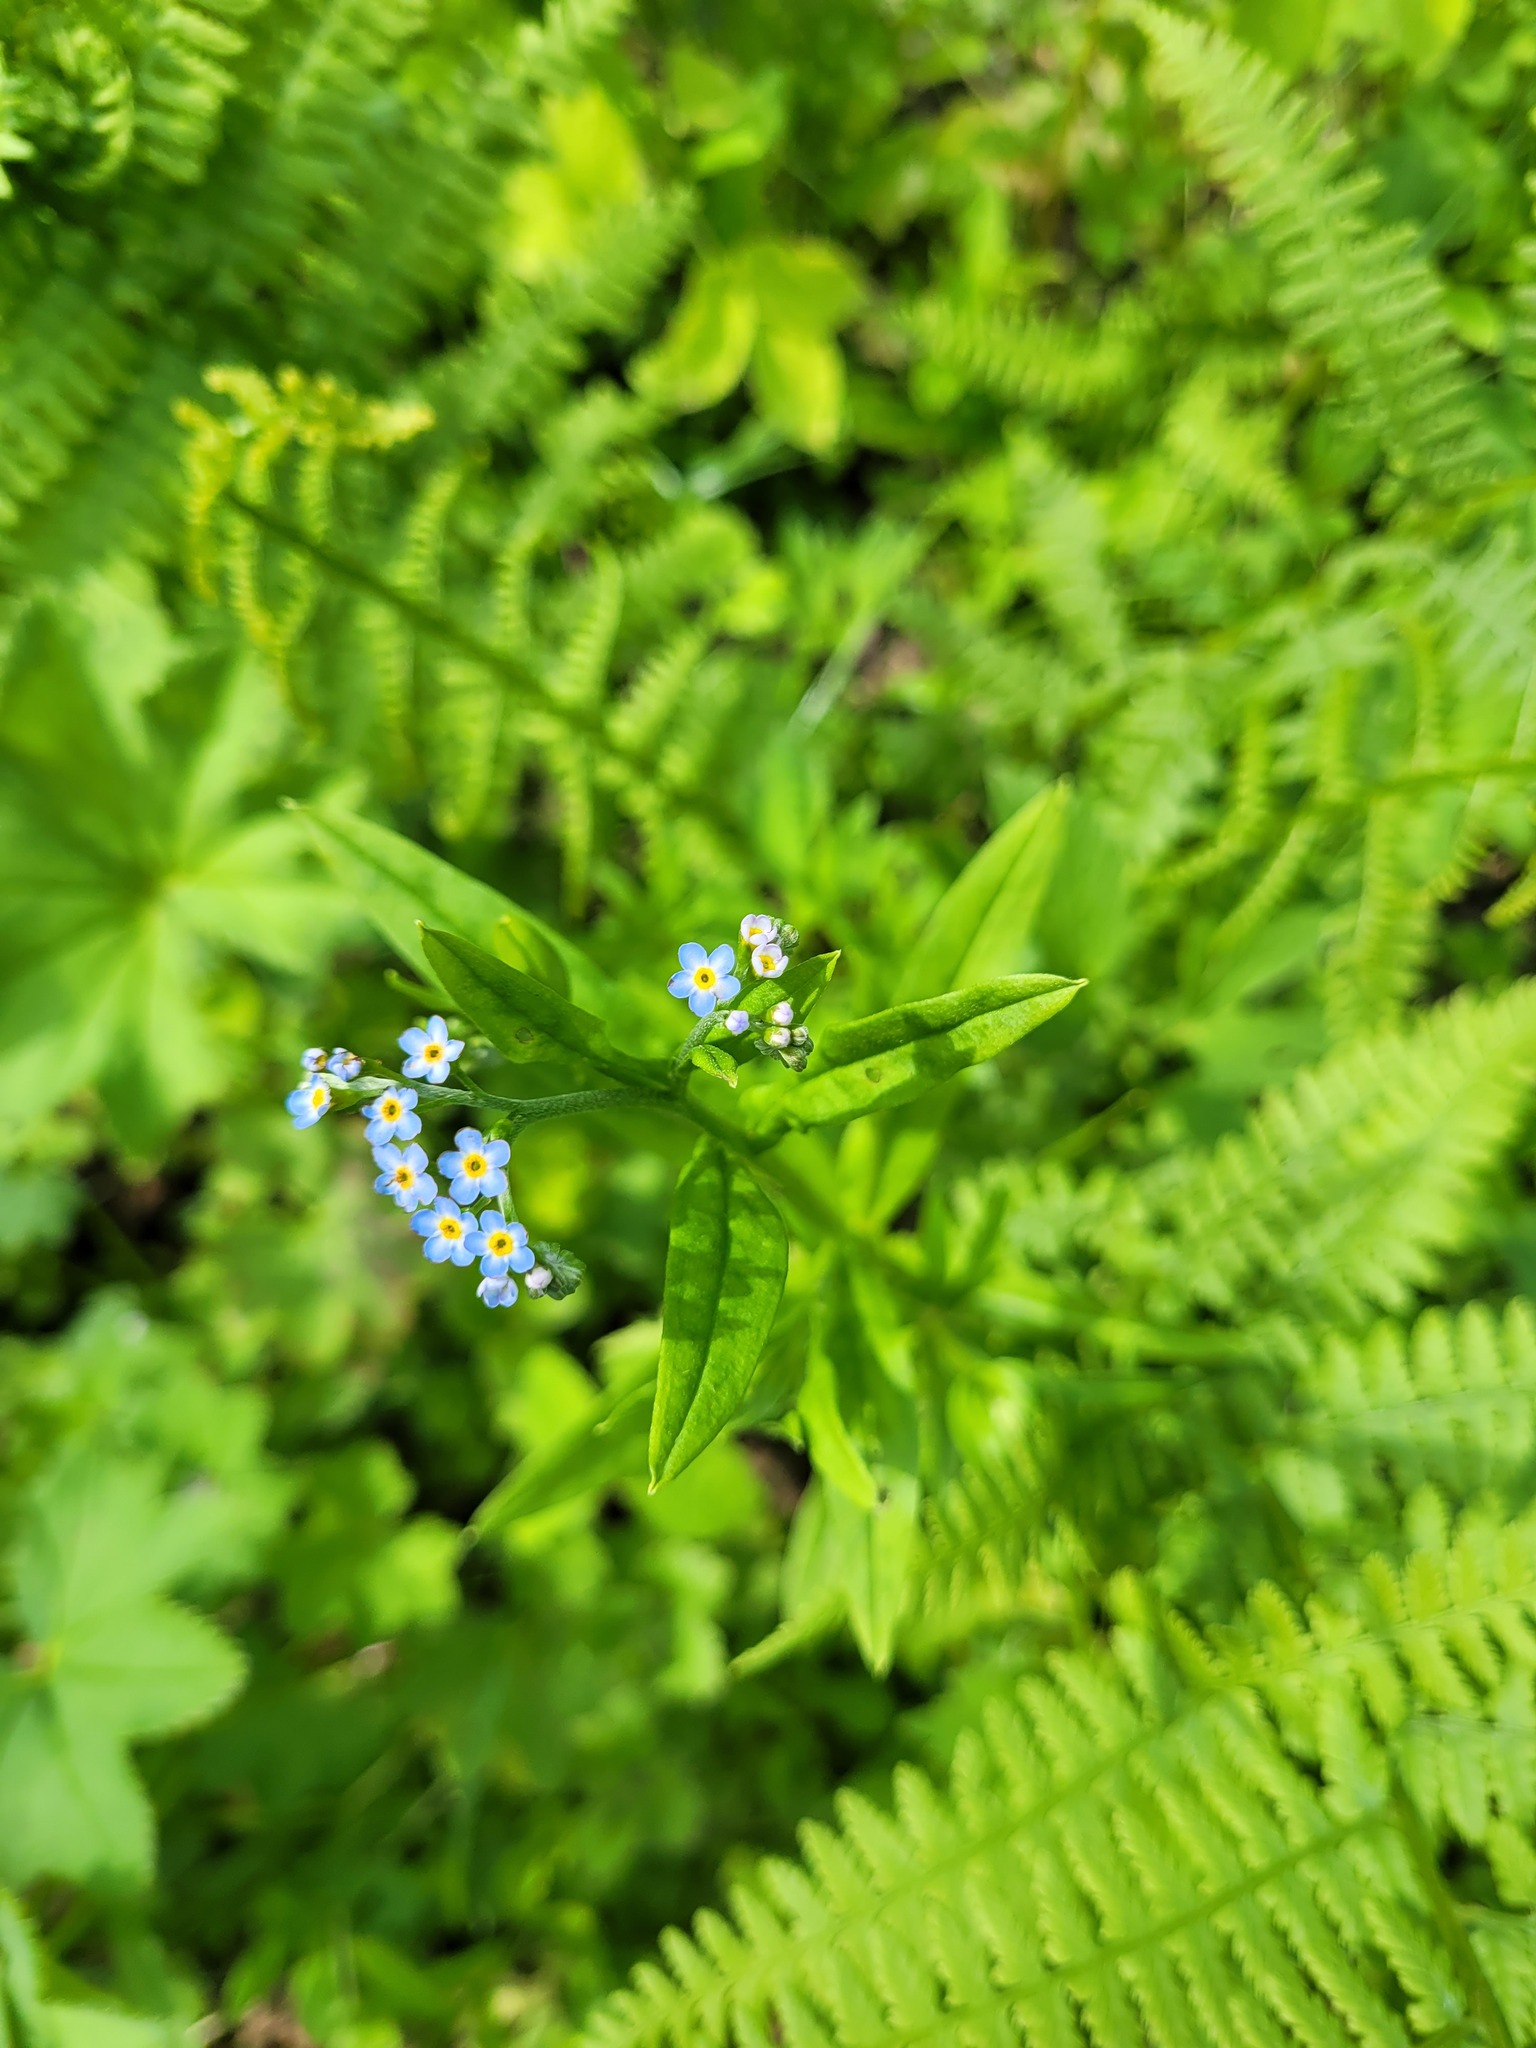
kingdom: Plantae
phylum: Tracheophyta
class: Magnoliopsida
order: Boraginales
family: Boraginaceae
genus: Myosotis
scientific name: Myosotis scorpioides
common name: Water forget-me-not
